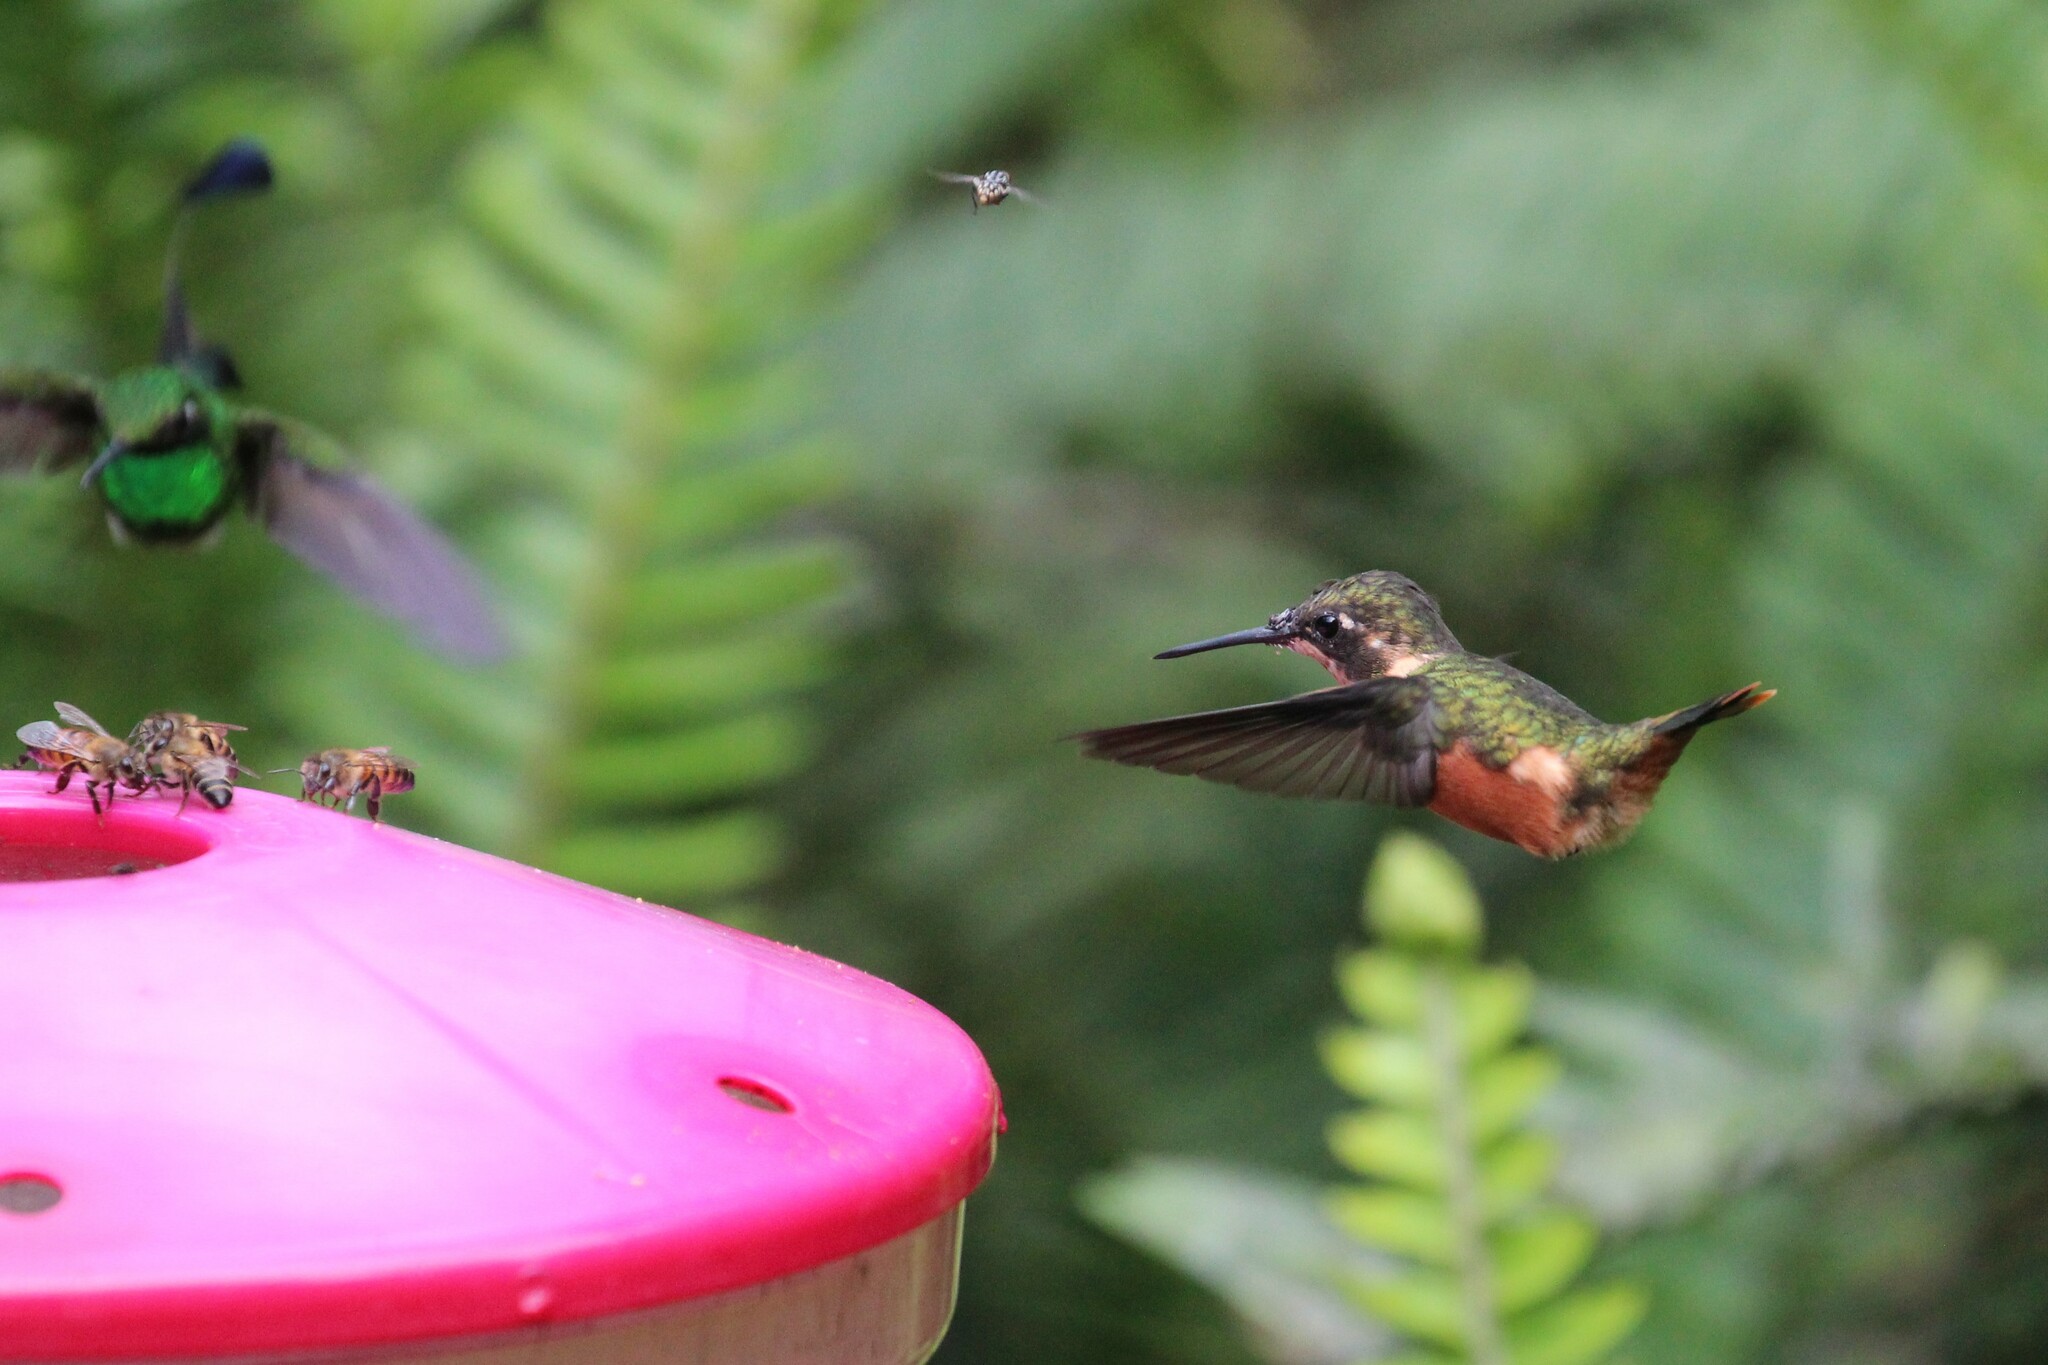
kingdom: Animalia
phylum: Chordata
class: Aves
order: Apodiformes
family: Trochilidae
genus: Calliphlox
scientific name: Calliphlox mitchellii
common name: Purple-throated woodstar
